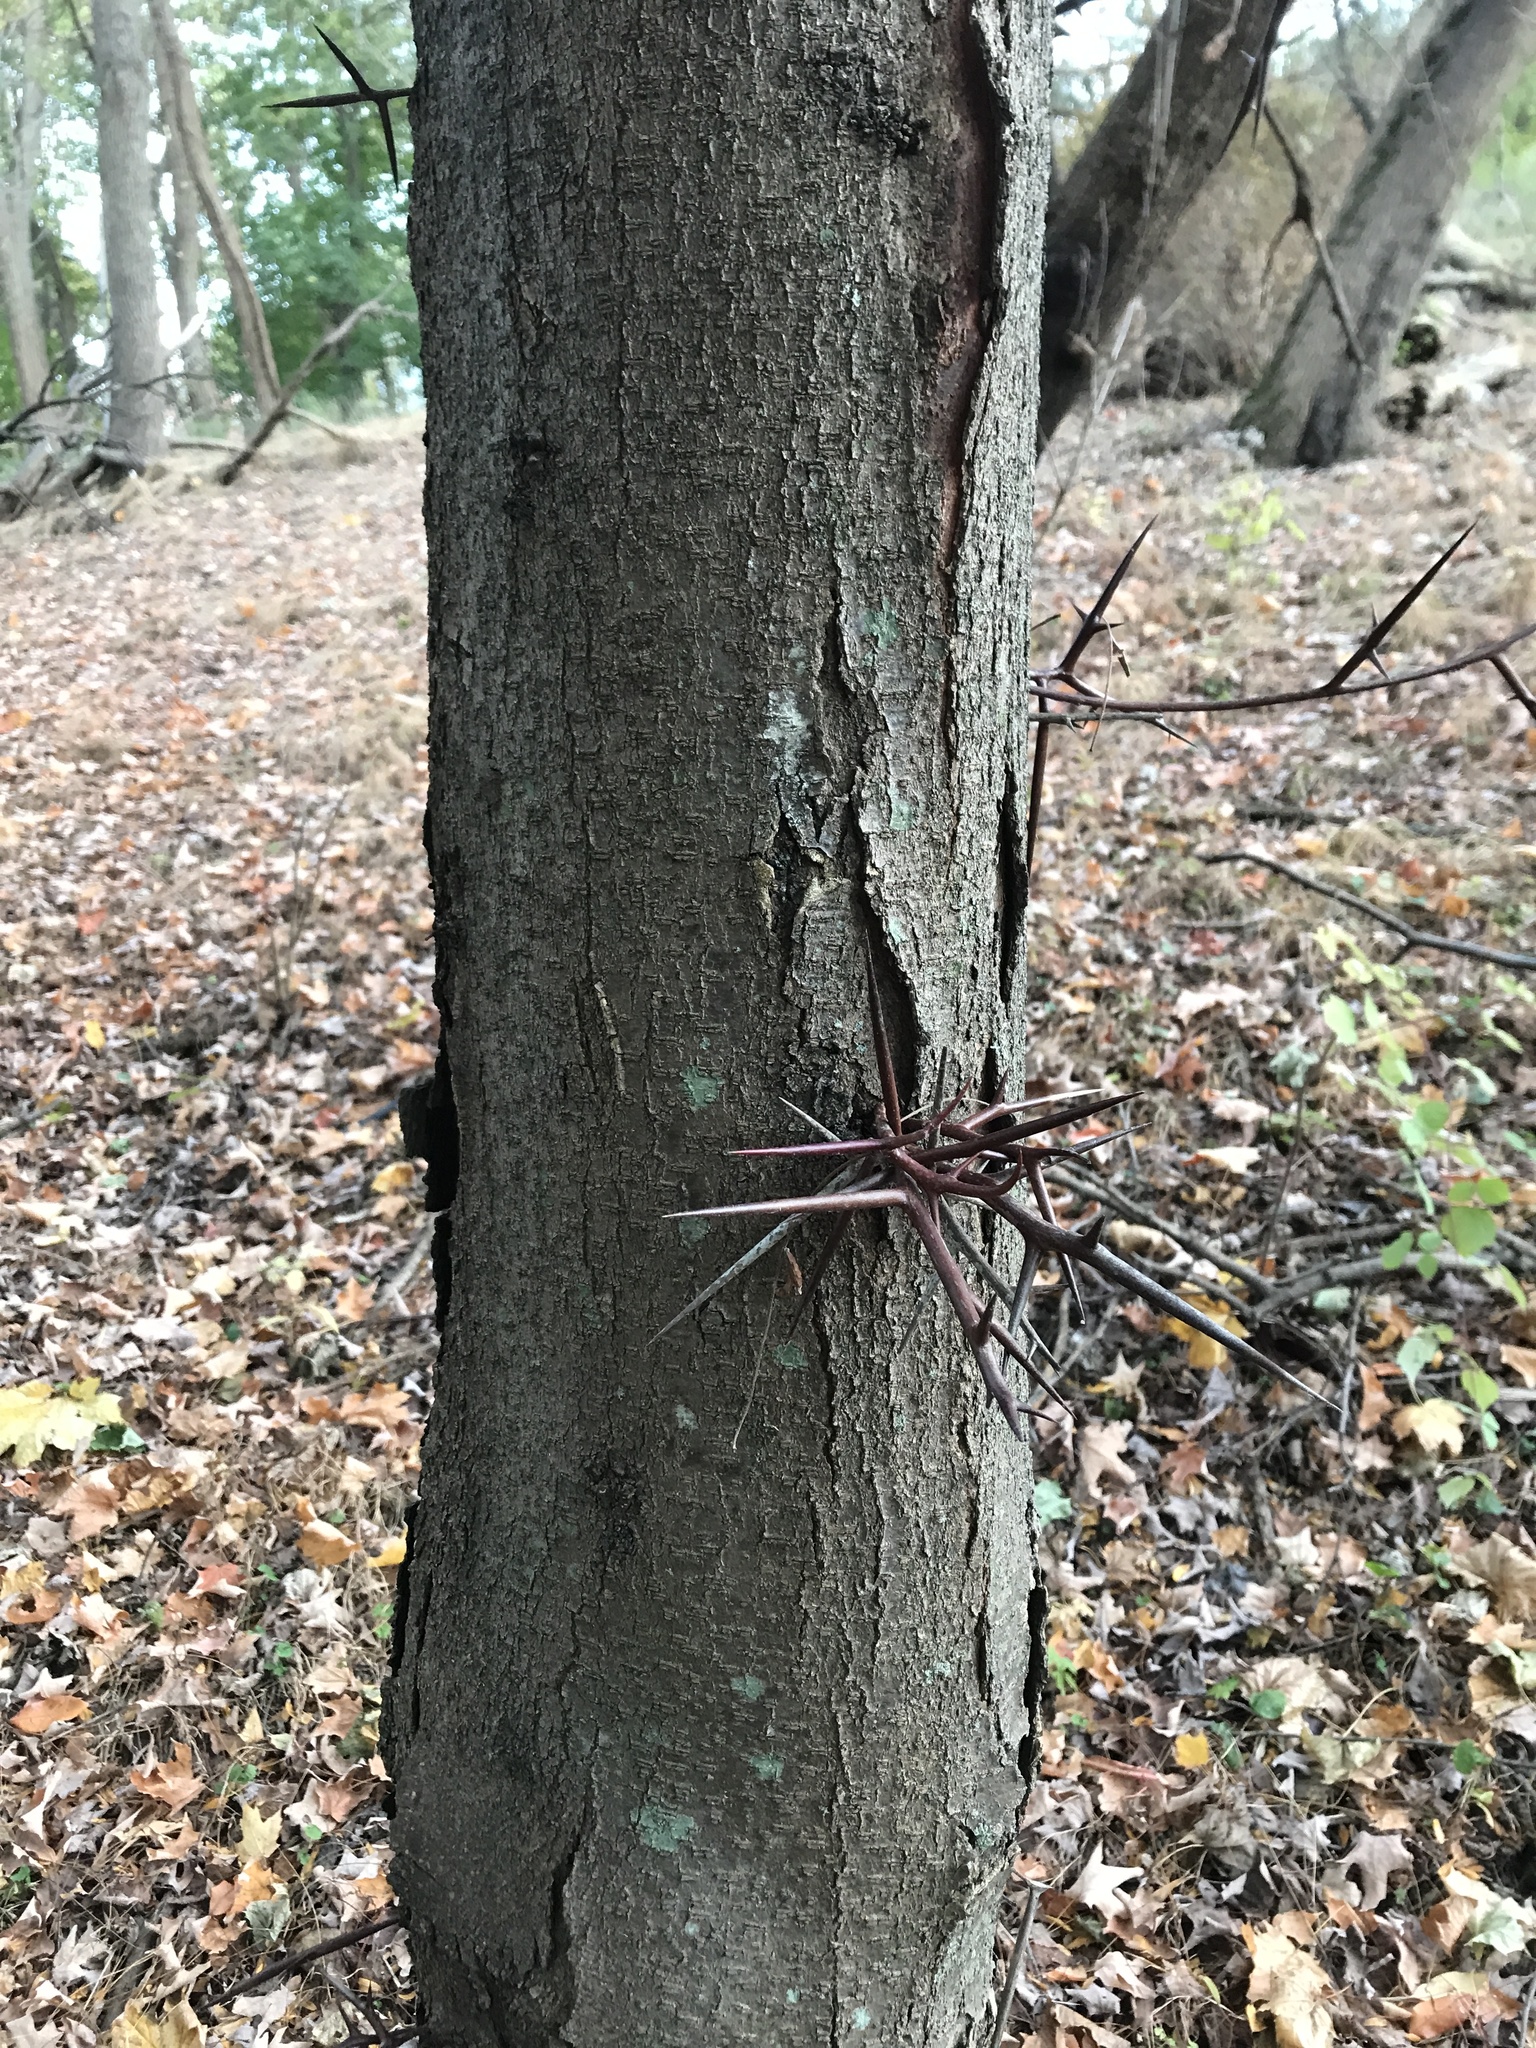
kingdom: Plantae
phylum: Tracheophyta
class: Magnoliopsida
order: Fabales
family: Fabaceae
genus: Gleditsia
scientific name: Gleditsia triacanthos
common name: Common honeylocust
